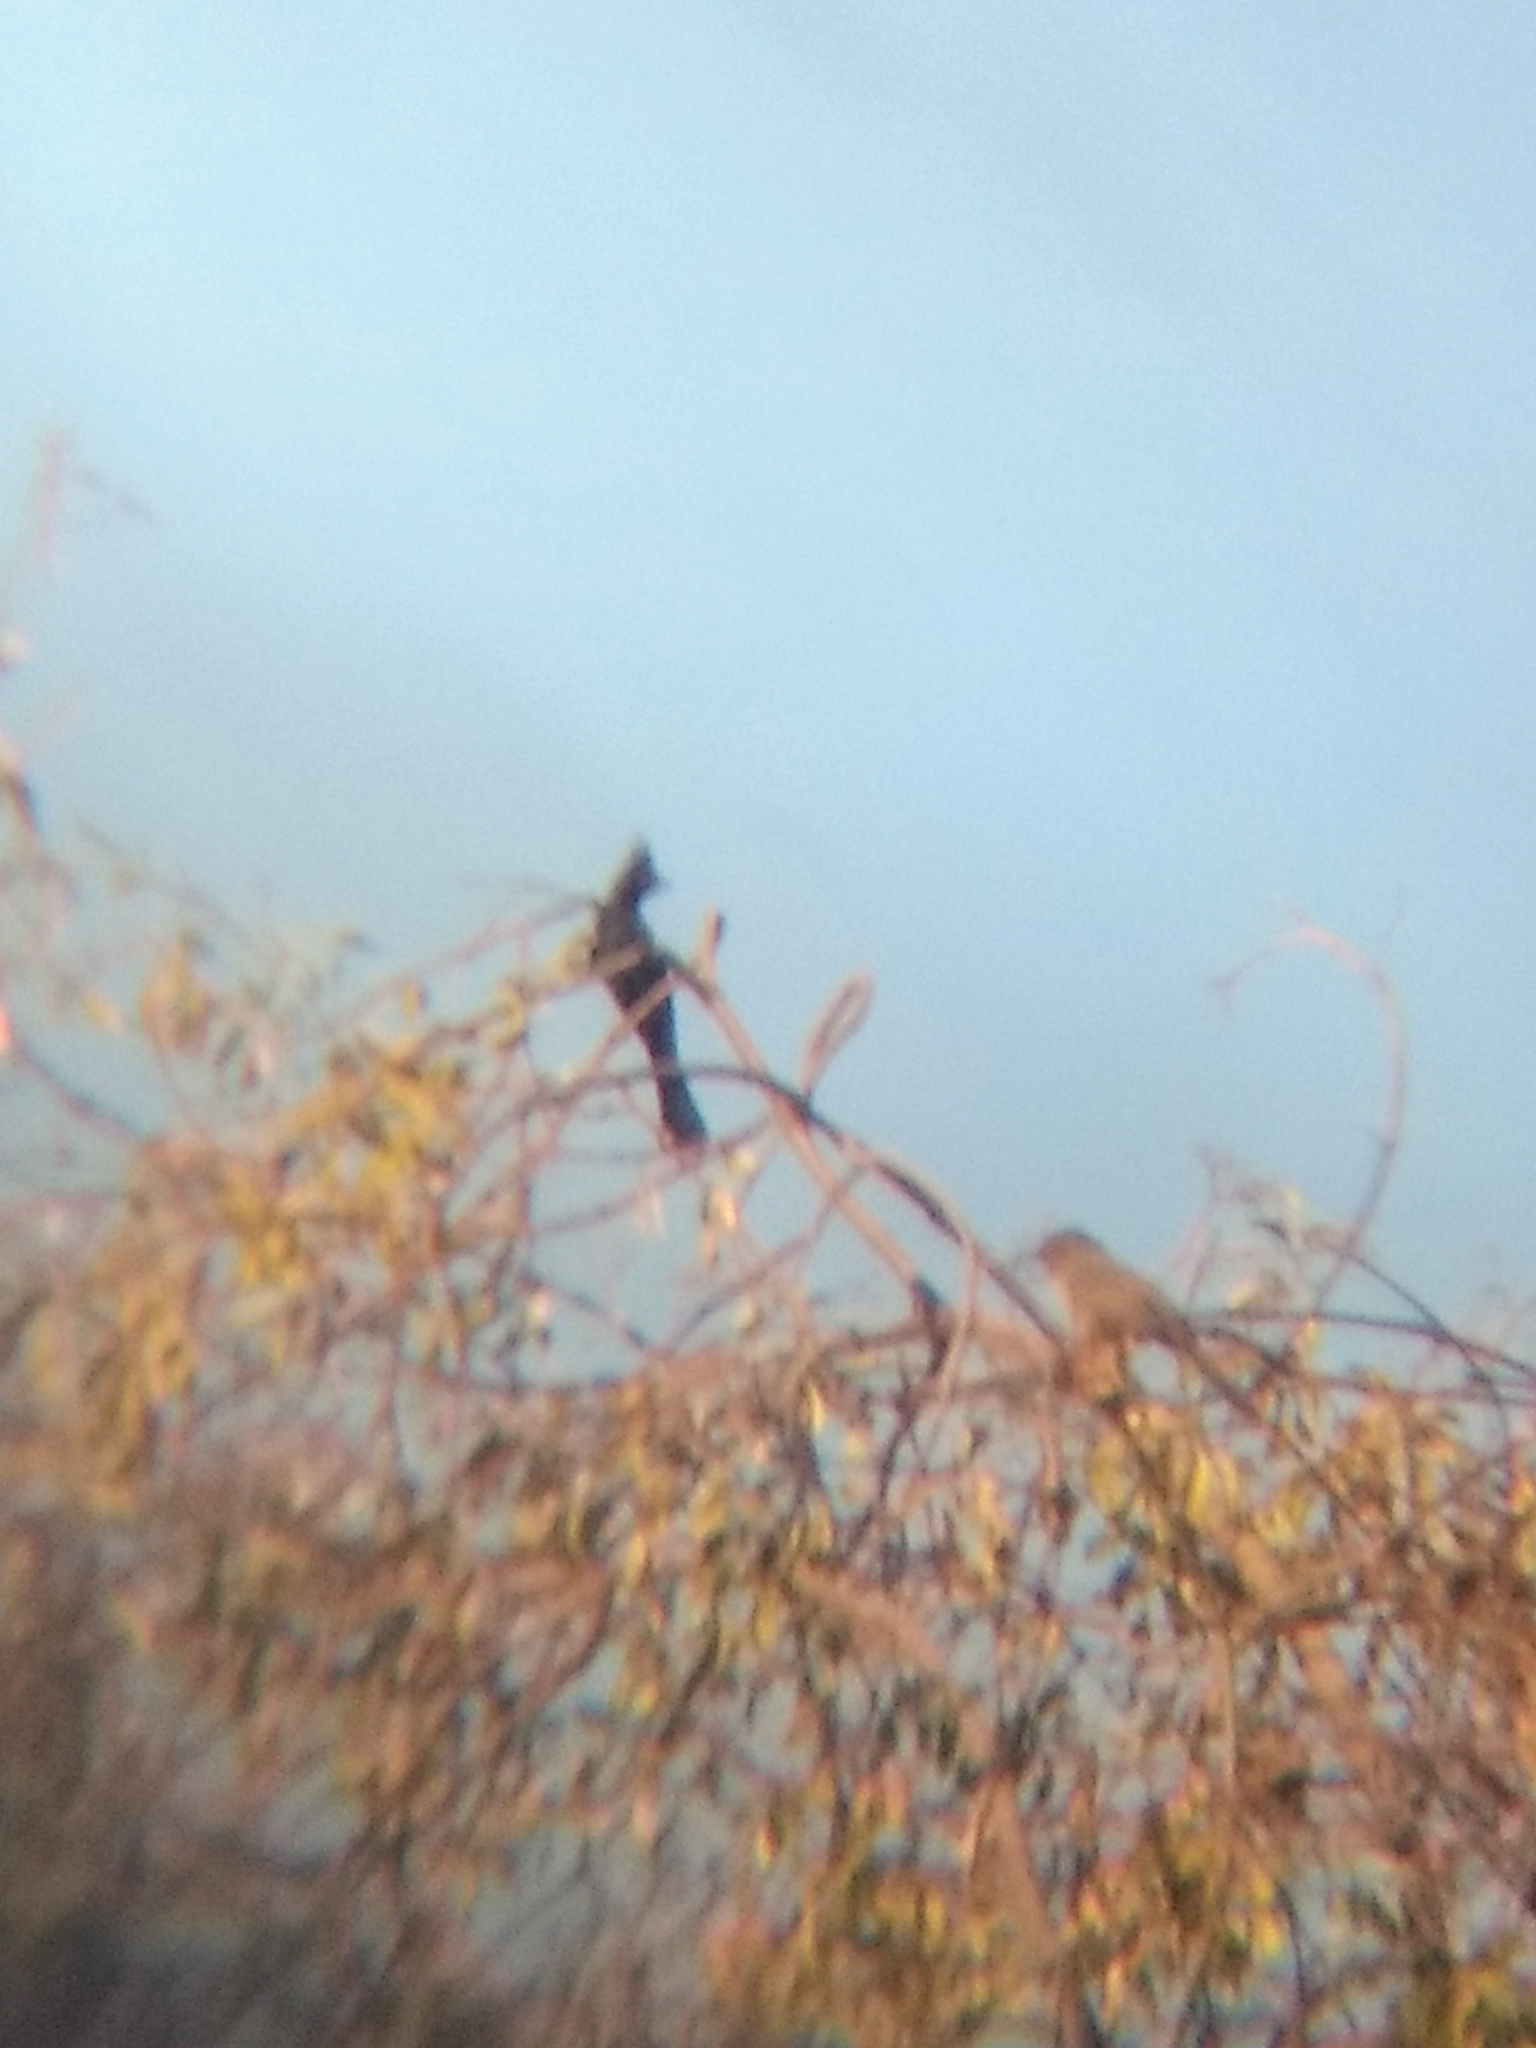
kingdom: Animalia
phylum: Chordata
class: Aves
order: Passeriformes
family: Ptilogonatidae
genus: Phainopepla
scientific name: Phainopepla nitens
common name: Phainopepla
